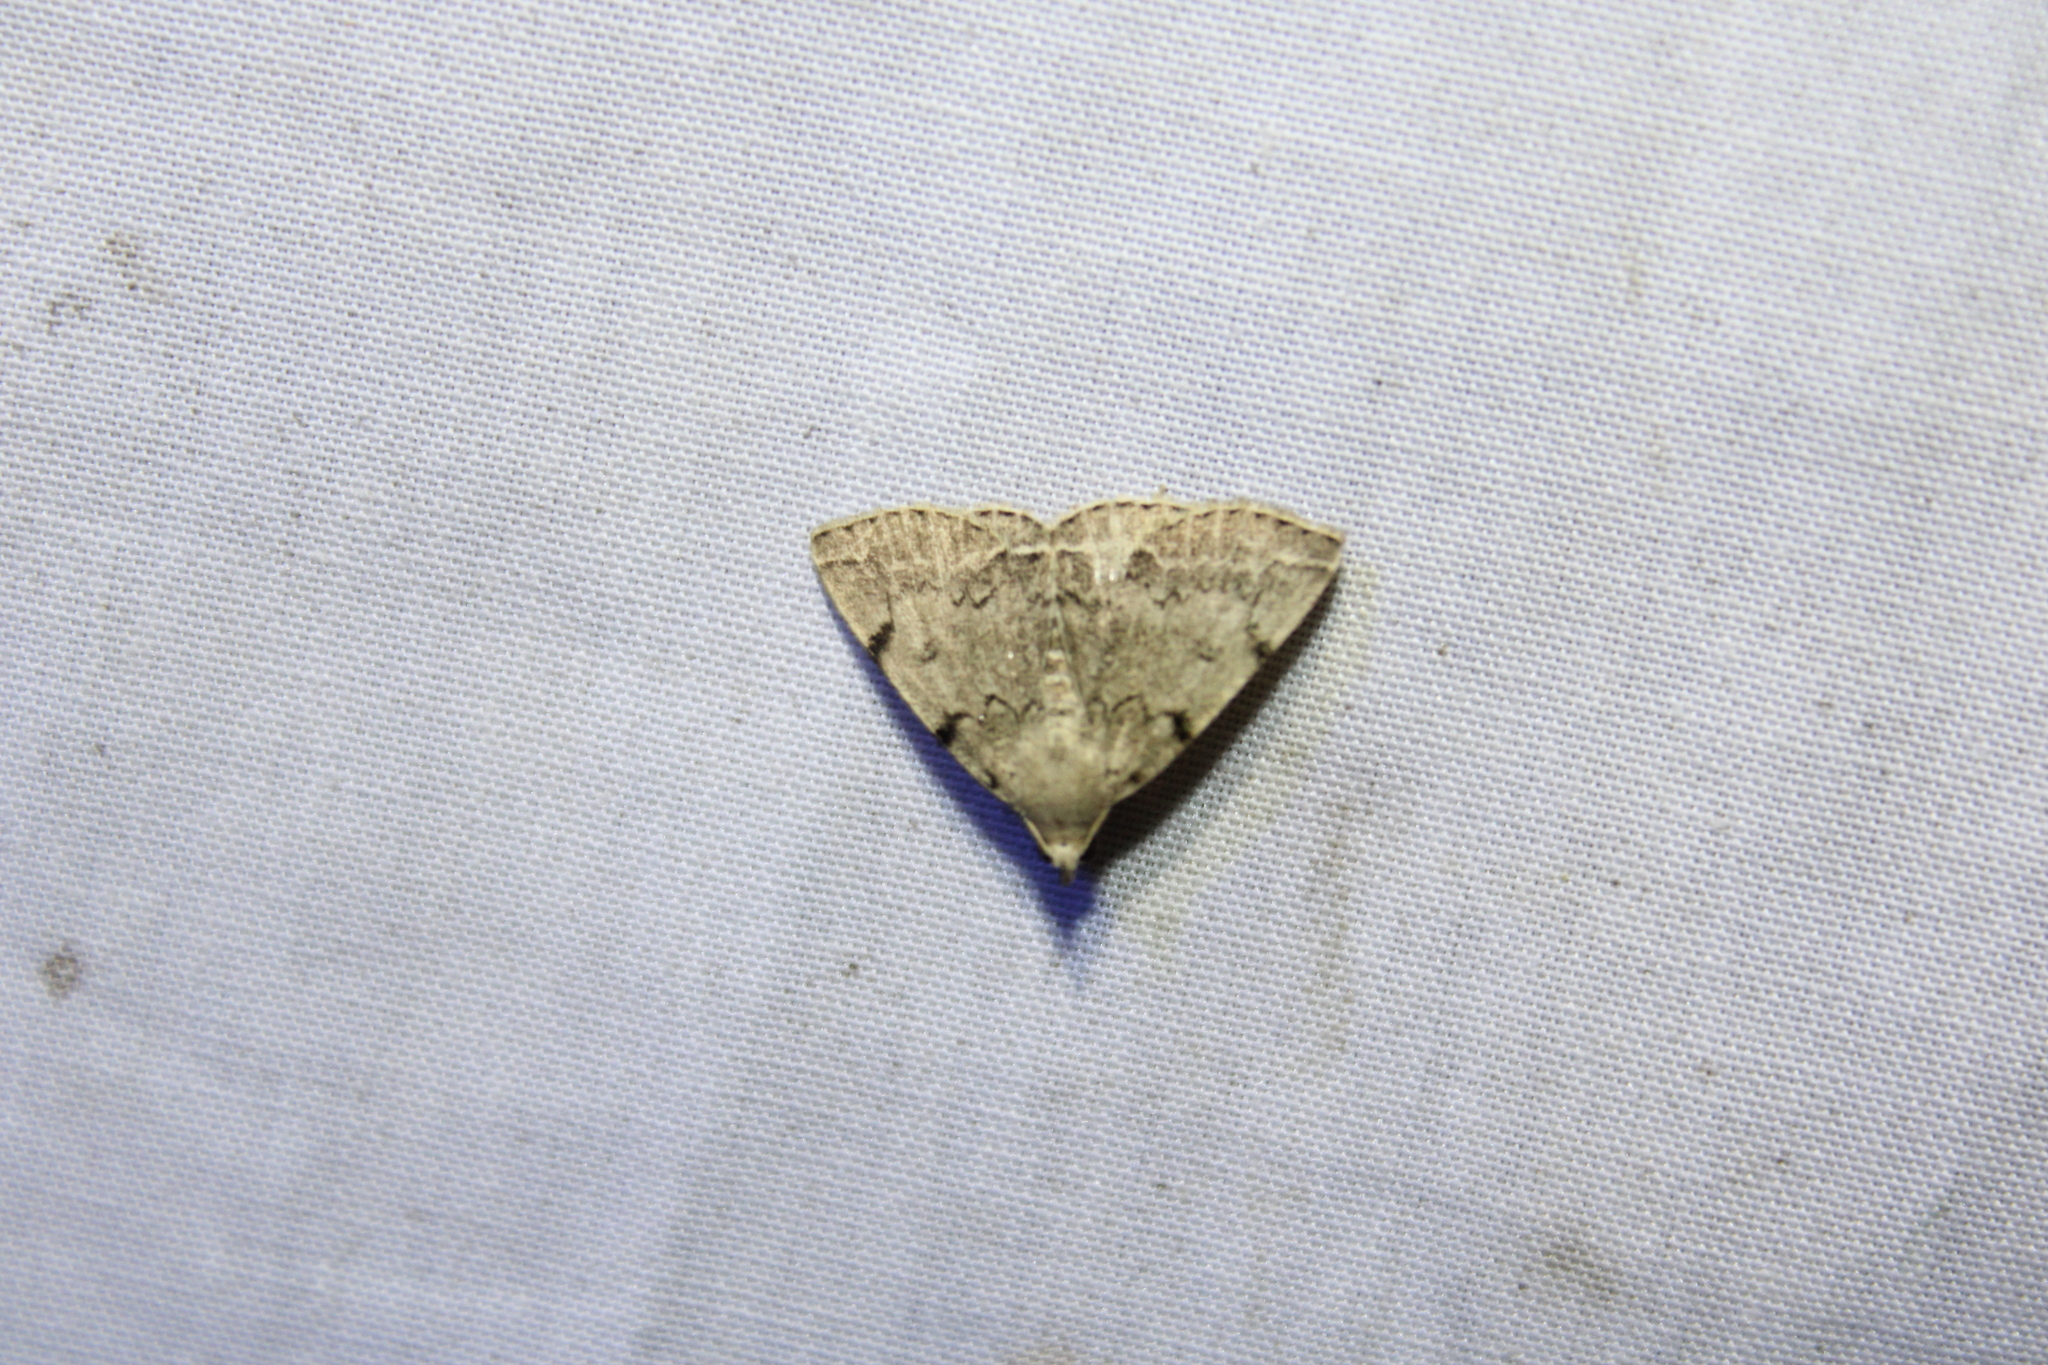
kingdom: Animalia
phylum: Arthropoda
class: Insecta
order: Lepidoptera
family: Erebidae
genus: Zanclognatha
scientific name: Zanclognatha theralis
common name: Flagged fan-foot
